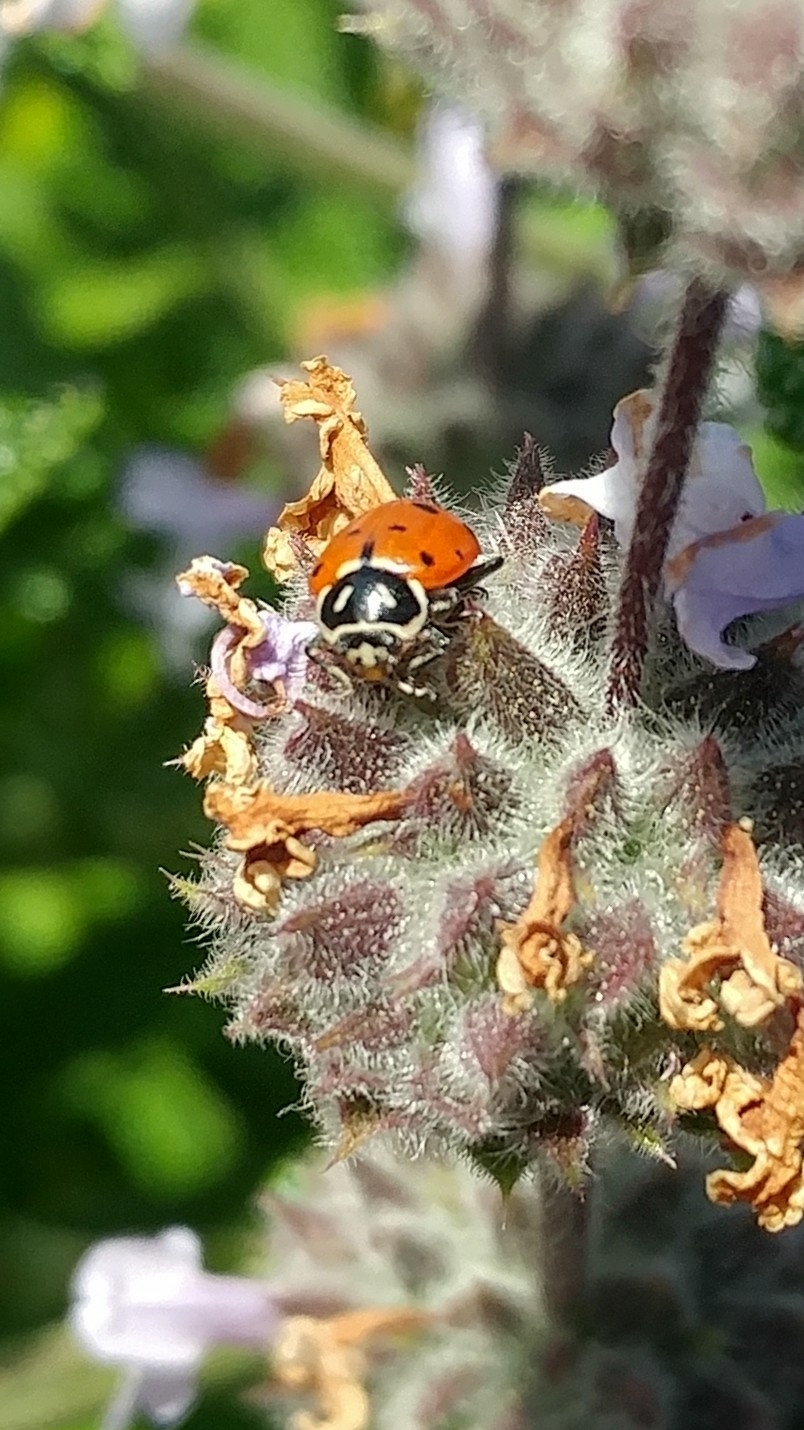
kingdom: Animalia
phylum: Arthropoda
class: Insecta
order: Coleoptera
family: Coccinellidae
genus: Hippodamia
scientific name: Hippodamia convergens
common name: Convergent lady beetle
